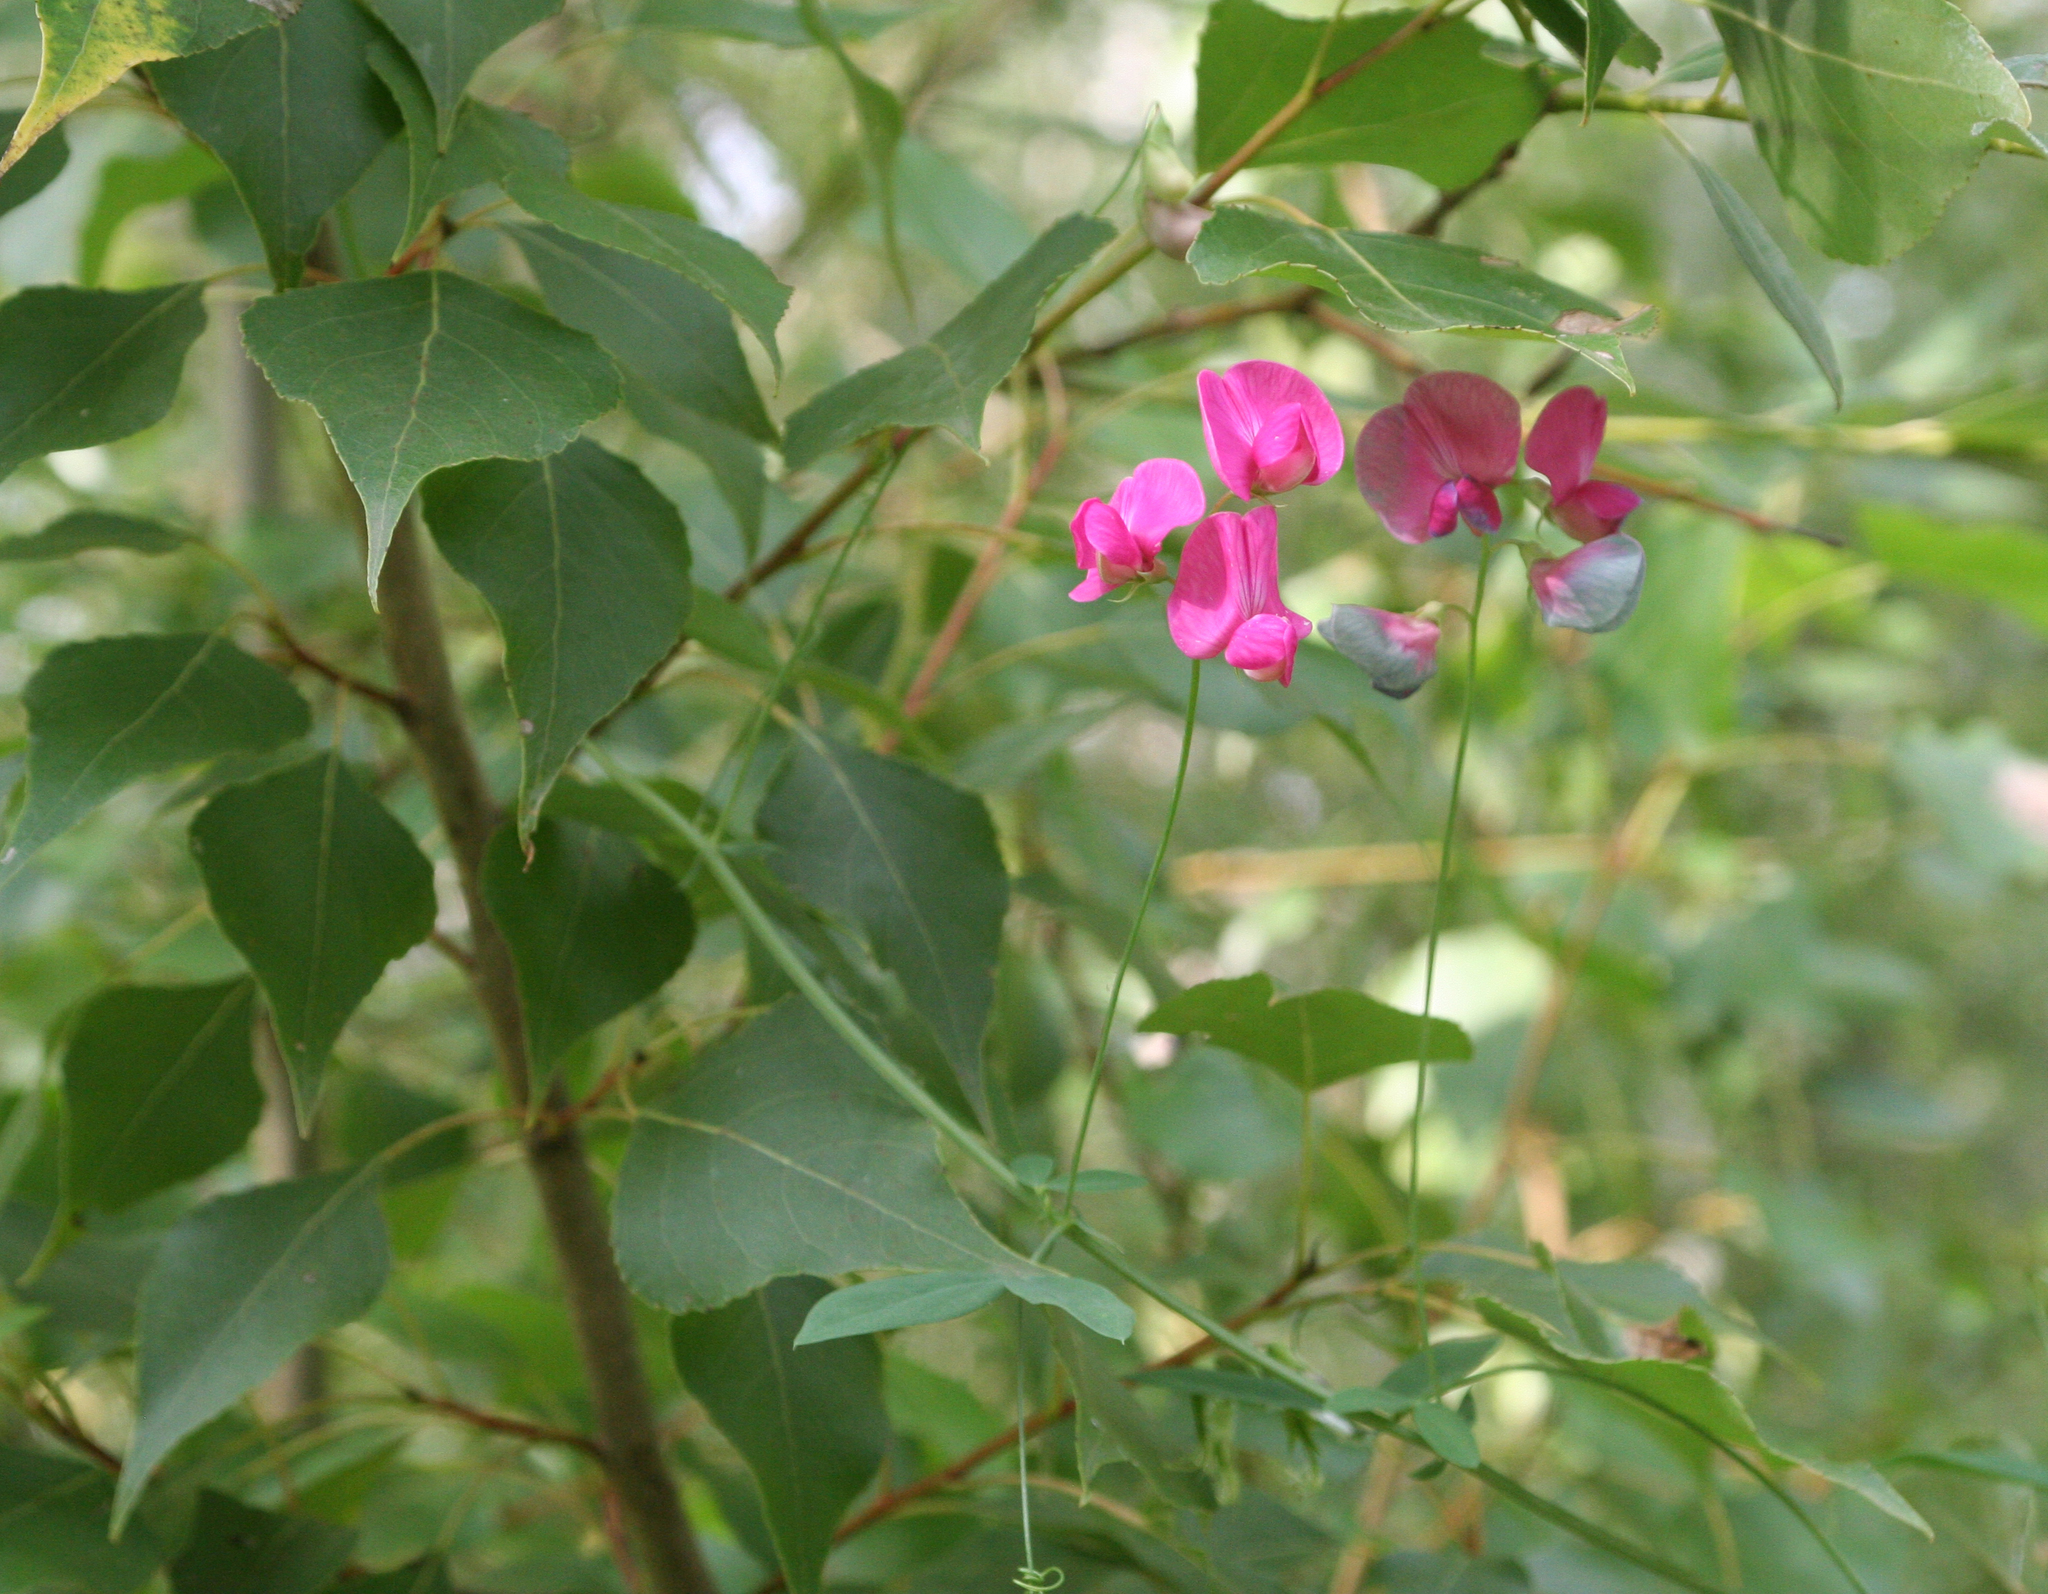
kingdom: Plantae
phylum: Tracheophyta
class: Magnoliopsida
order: Fabales
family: Fabaceae
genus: Lathyrus
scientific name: Lathyrus tuberosus
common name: Tuberous pea
